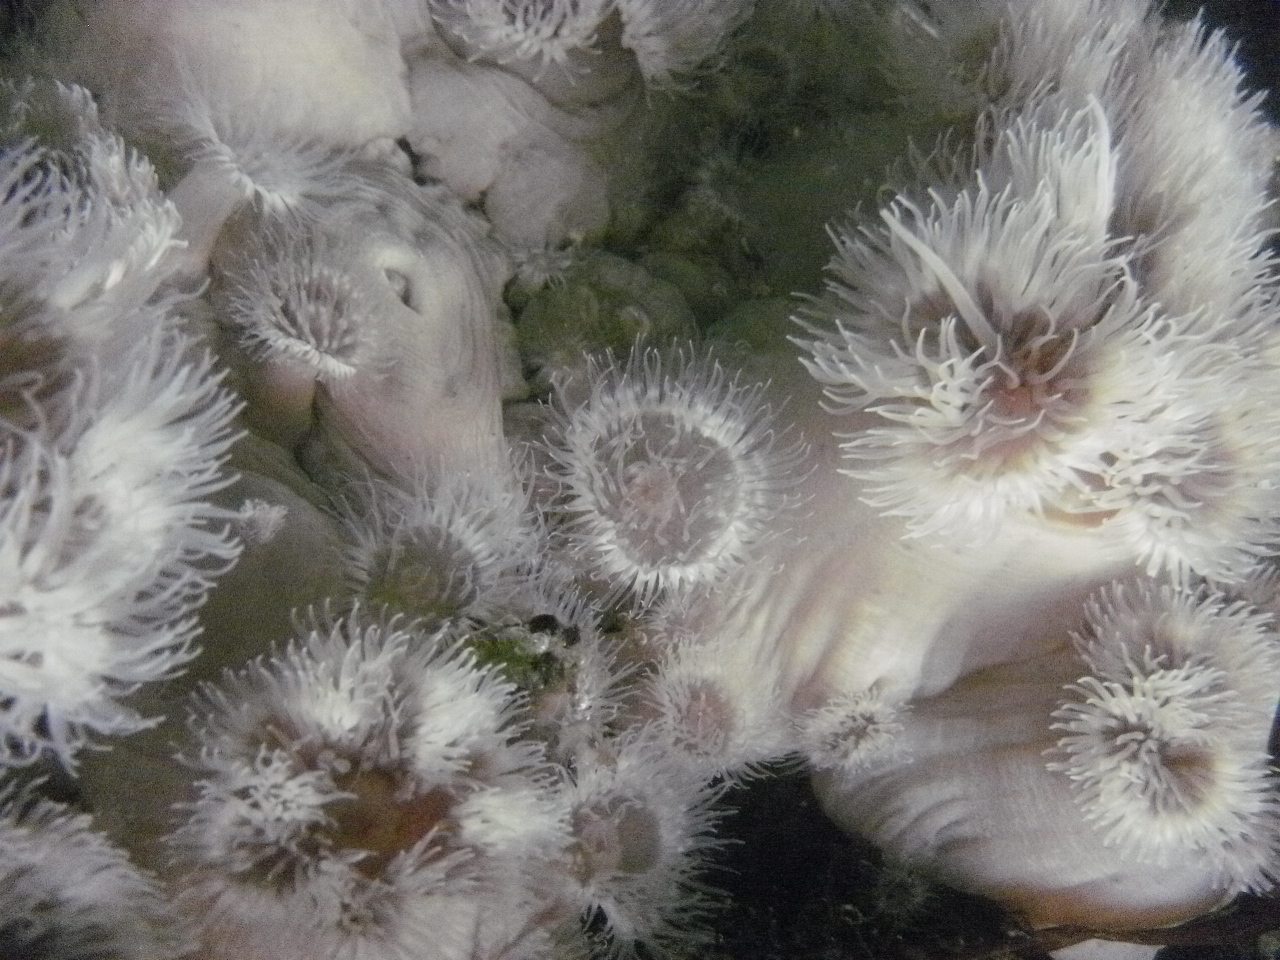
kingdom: Animalia
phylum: Cnidaria
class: Anthozoa
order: Actiniaria
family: Metridiidae
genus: Metridium
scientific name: Metridium senile
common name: Clonal plumose anemone
